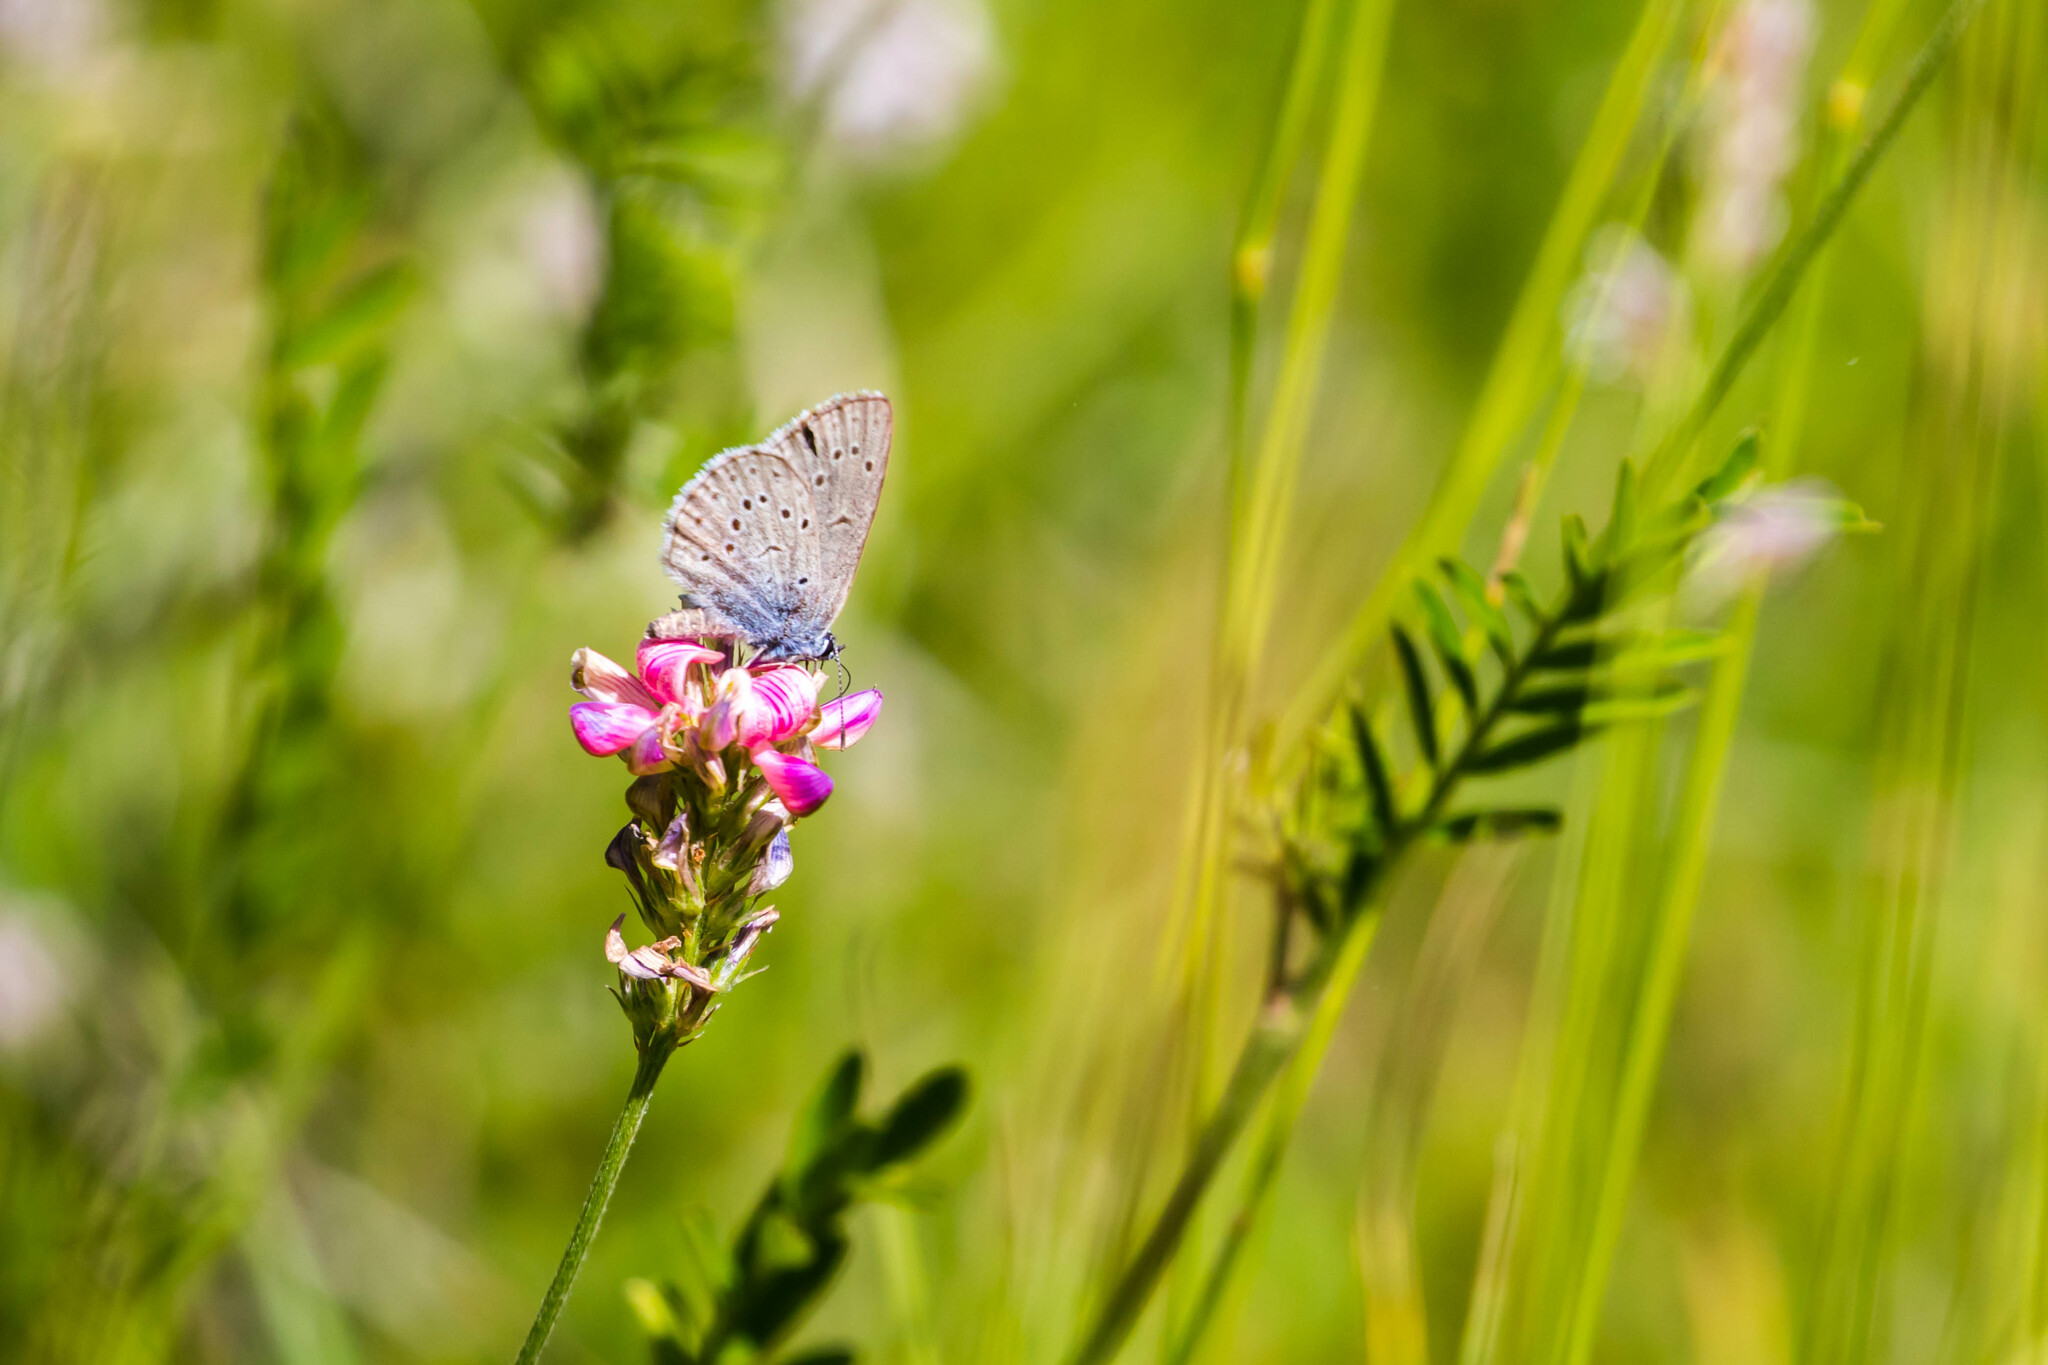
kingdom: Animalia
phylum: Arthropoda
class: Insecta
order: Lepidoptera
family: Lycaenidae
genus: Maculinea
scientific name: Maculinea alcon
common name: Alcon blue
